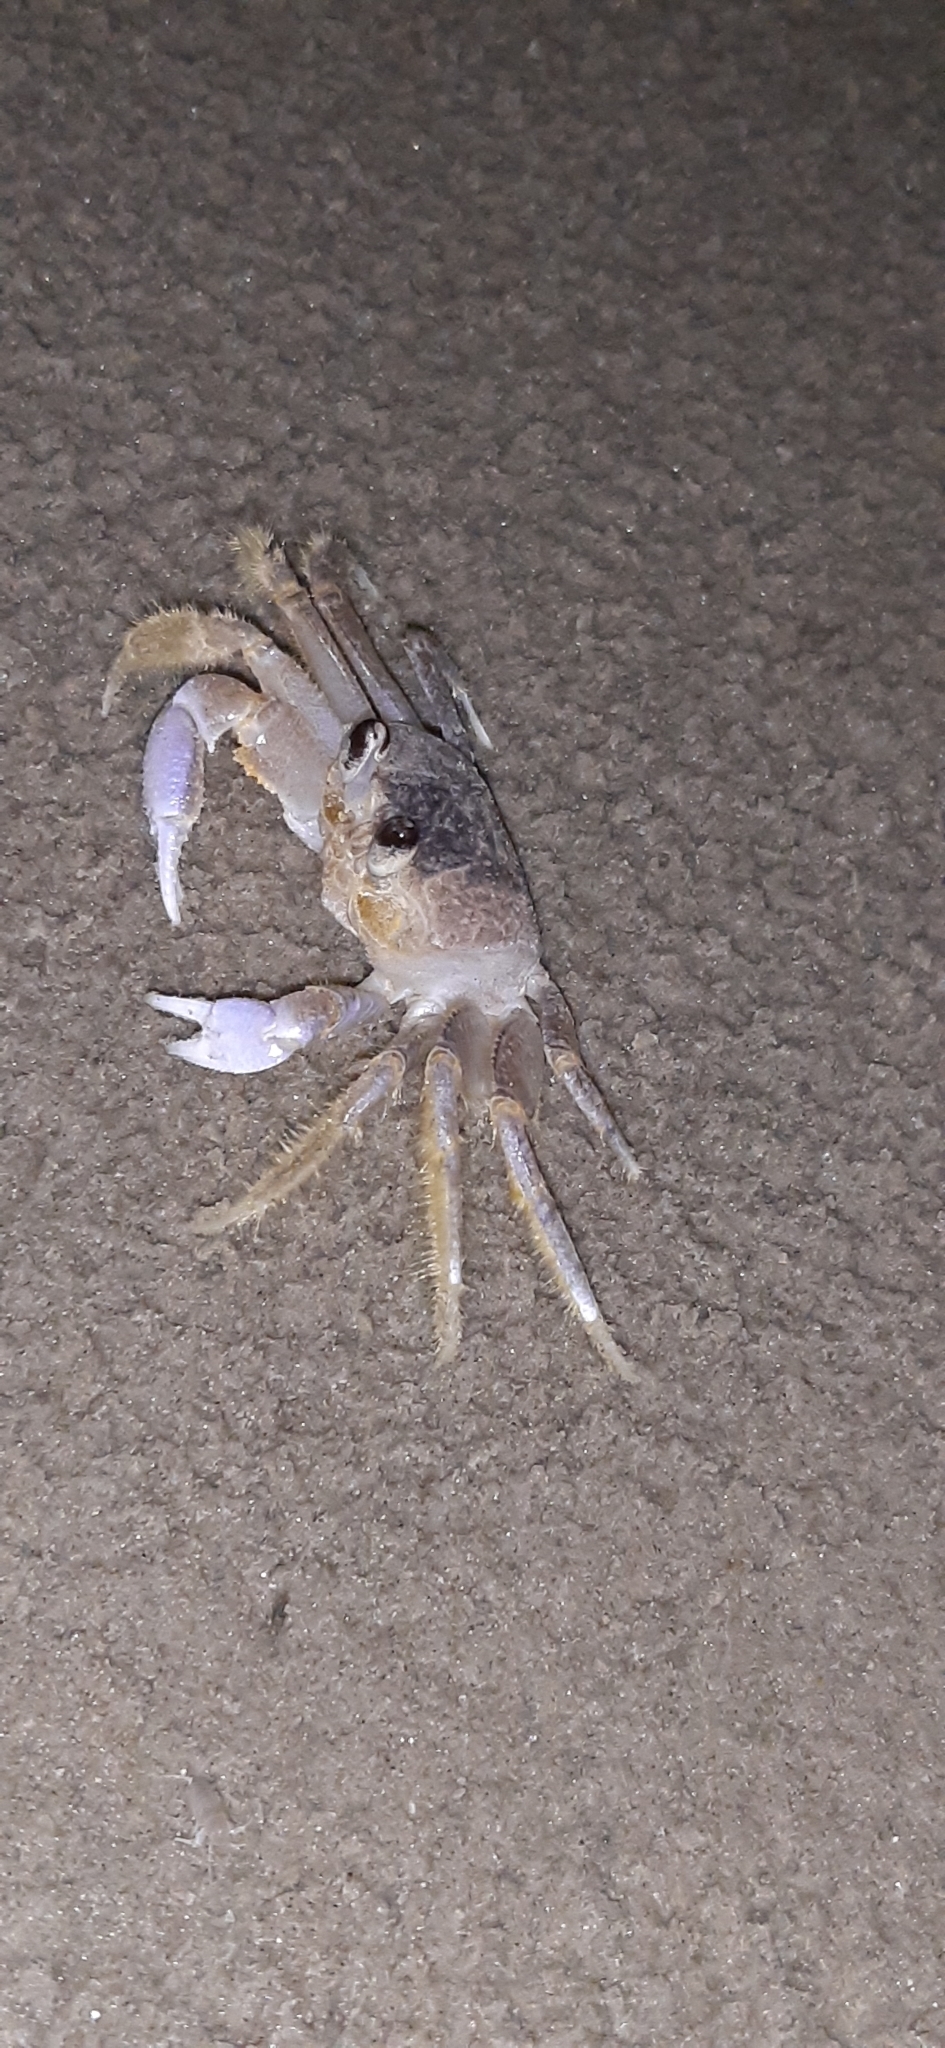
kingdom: Animalia
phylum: Arthropoda
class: Malacostraca
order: Decapoda
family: Ocypodidae
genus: Ocypode
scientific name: Ocypode quadrata
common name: Ghost crab
